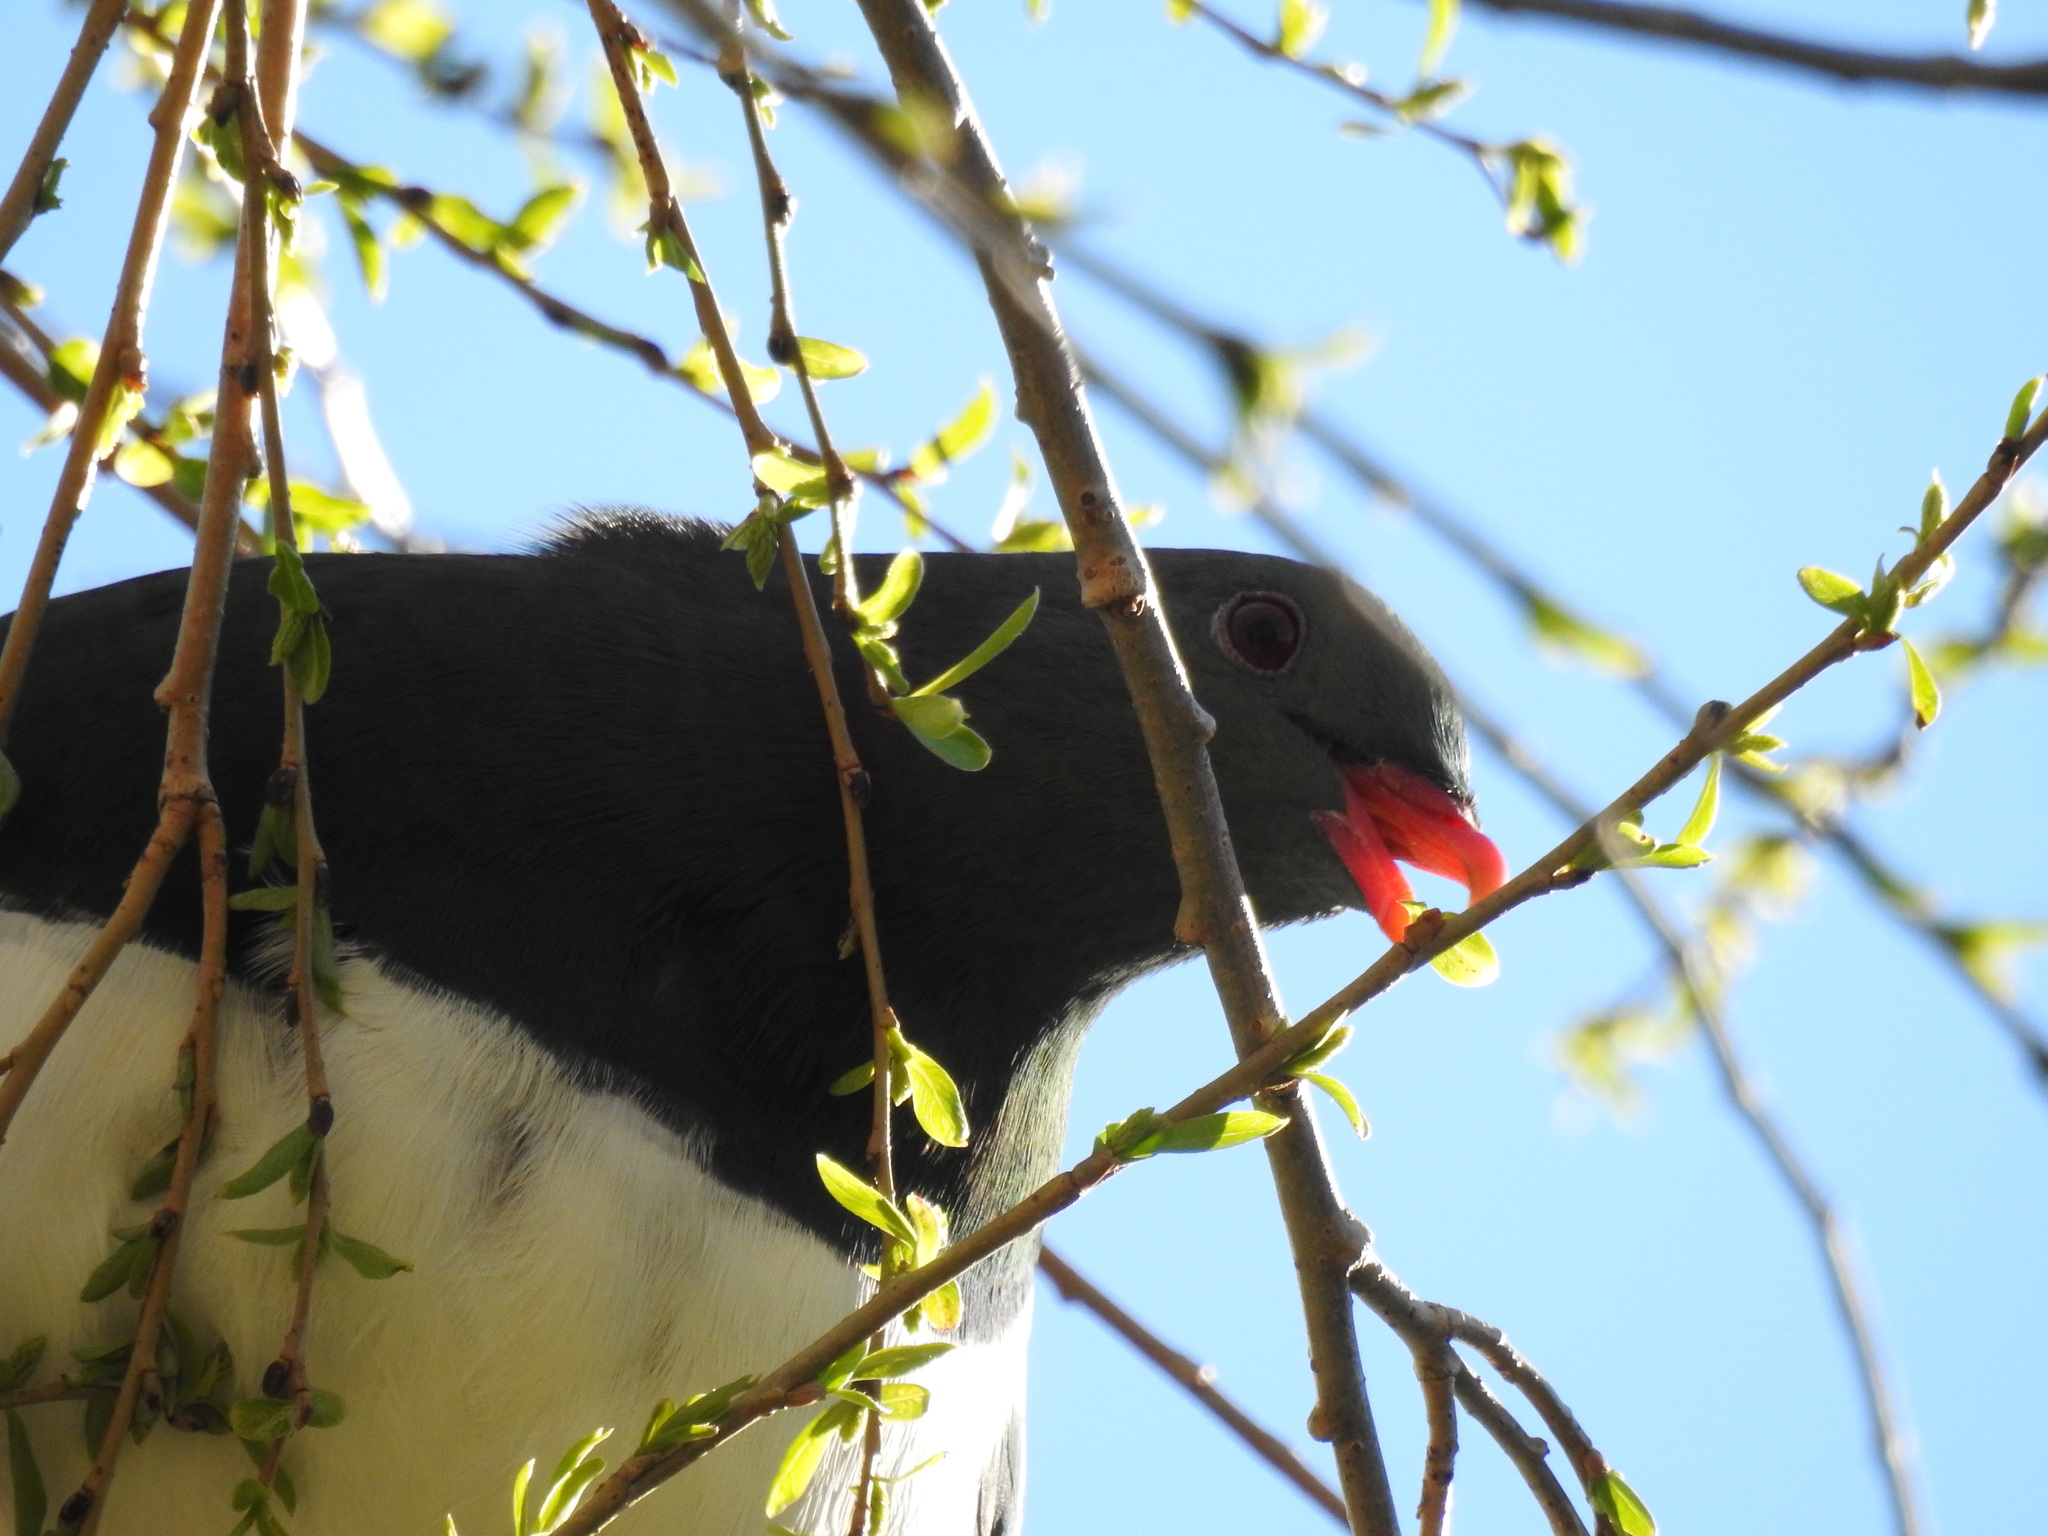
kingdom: Animalia
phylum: Chordata
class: Aves
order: Columbiformes
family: Columbidae
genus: Hemiphaga
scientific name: Hemiphaga novaeseelandiae
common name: New zealand pigeon
